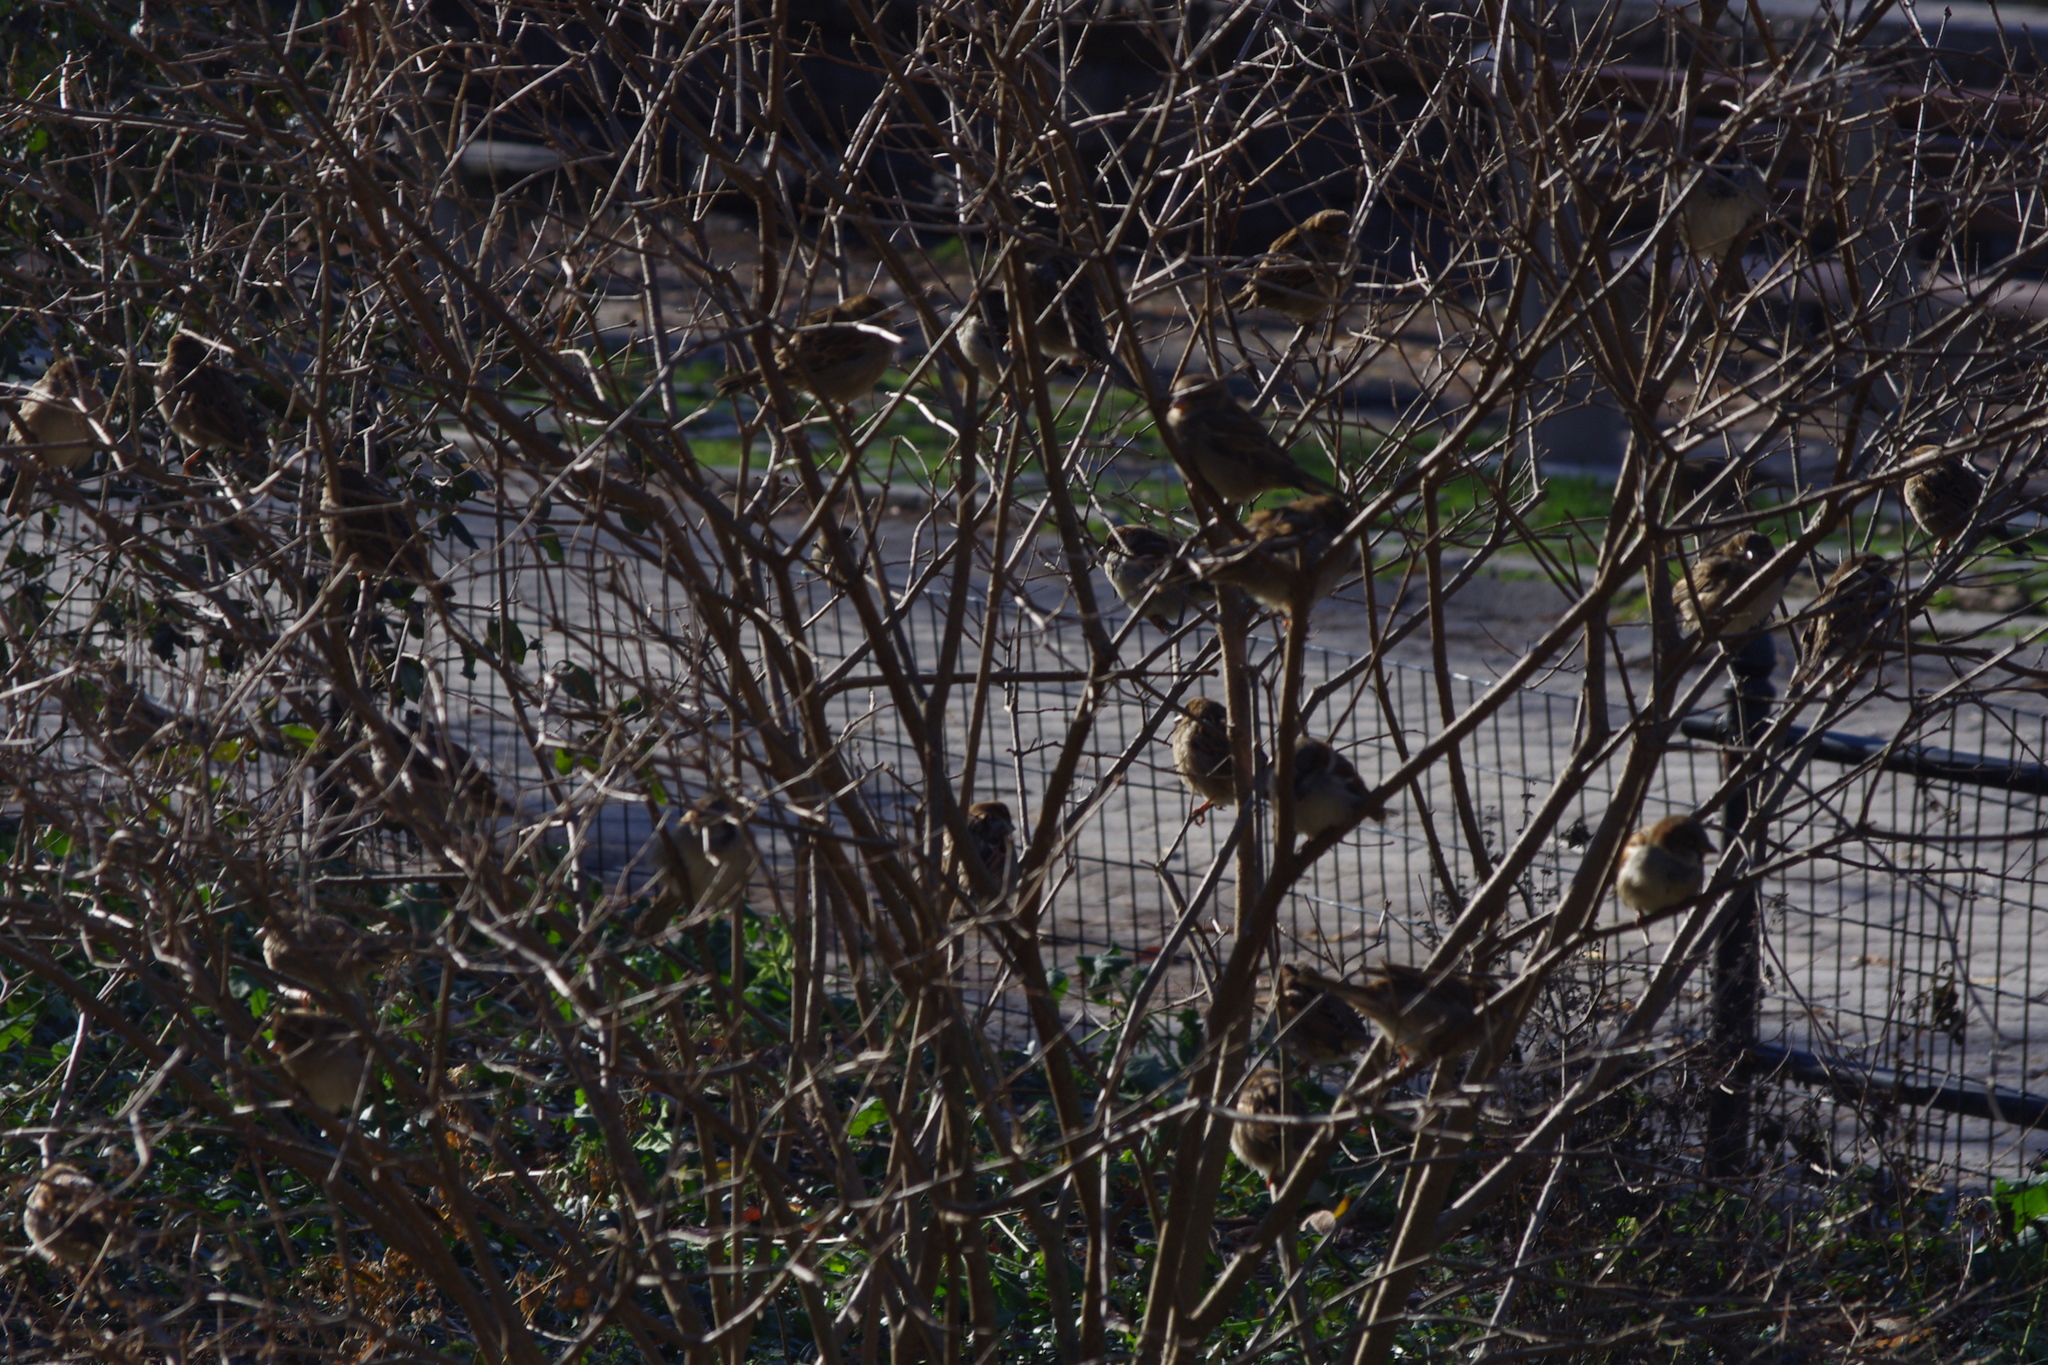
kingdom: Animalia
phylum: Chordata
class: Aves
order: Passeriformes
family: Passeridae
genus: Passer
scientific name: Passer domesticus
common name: House sparrow
